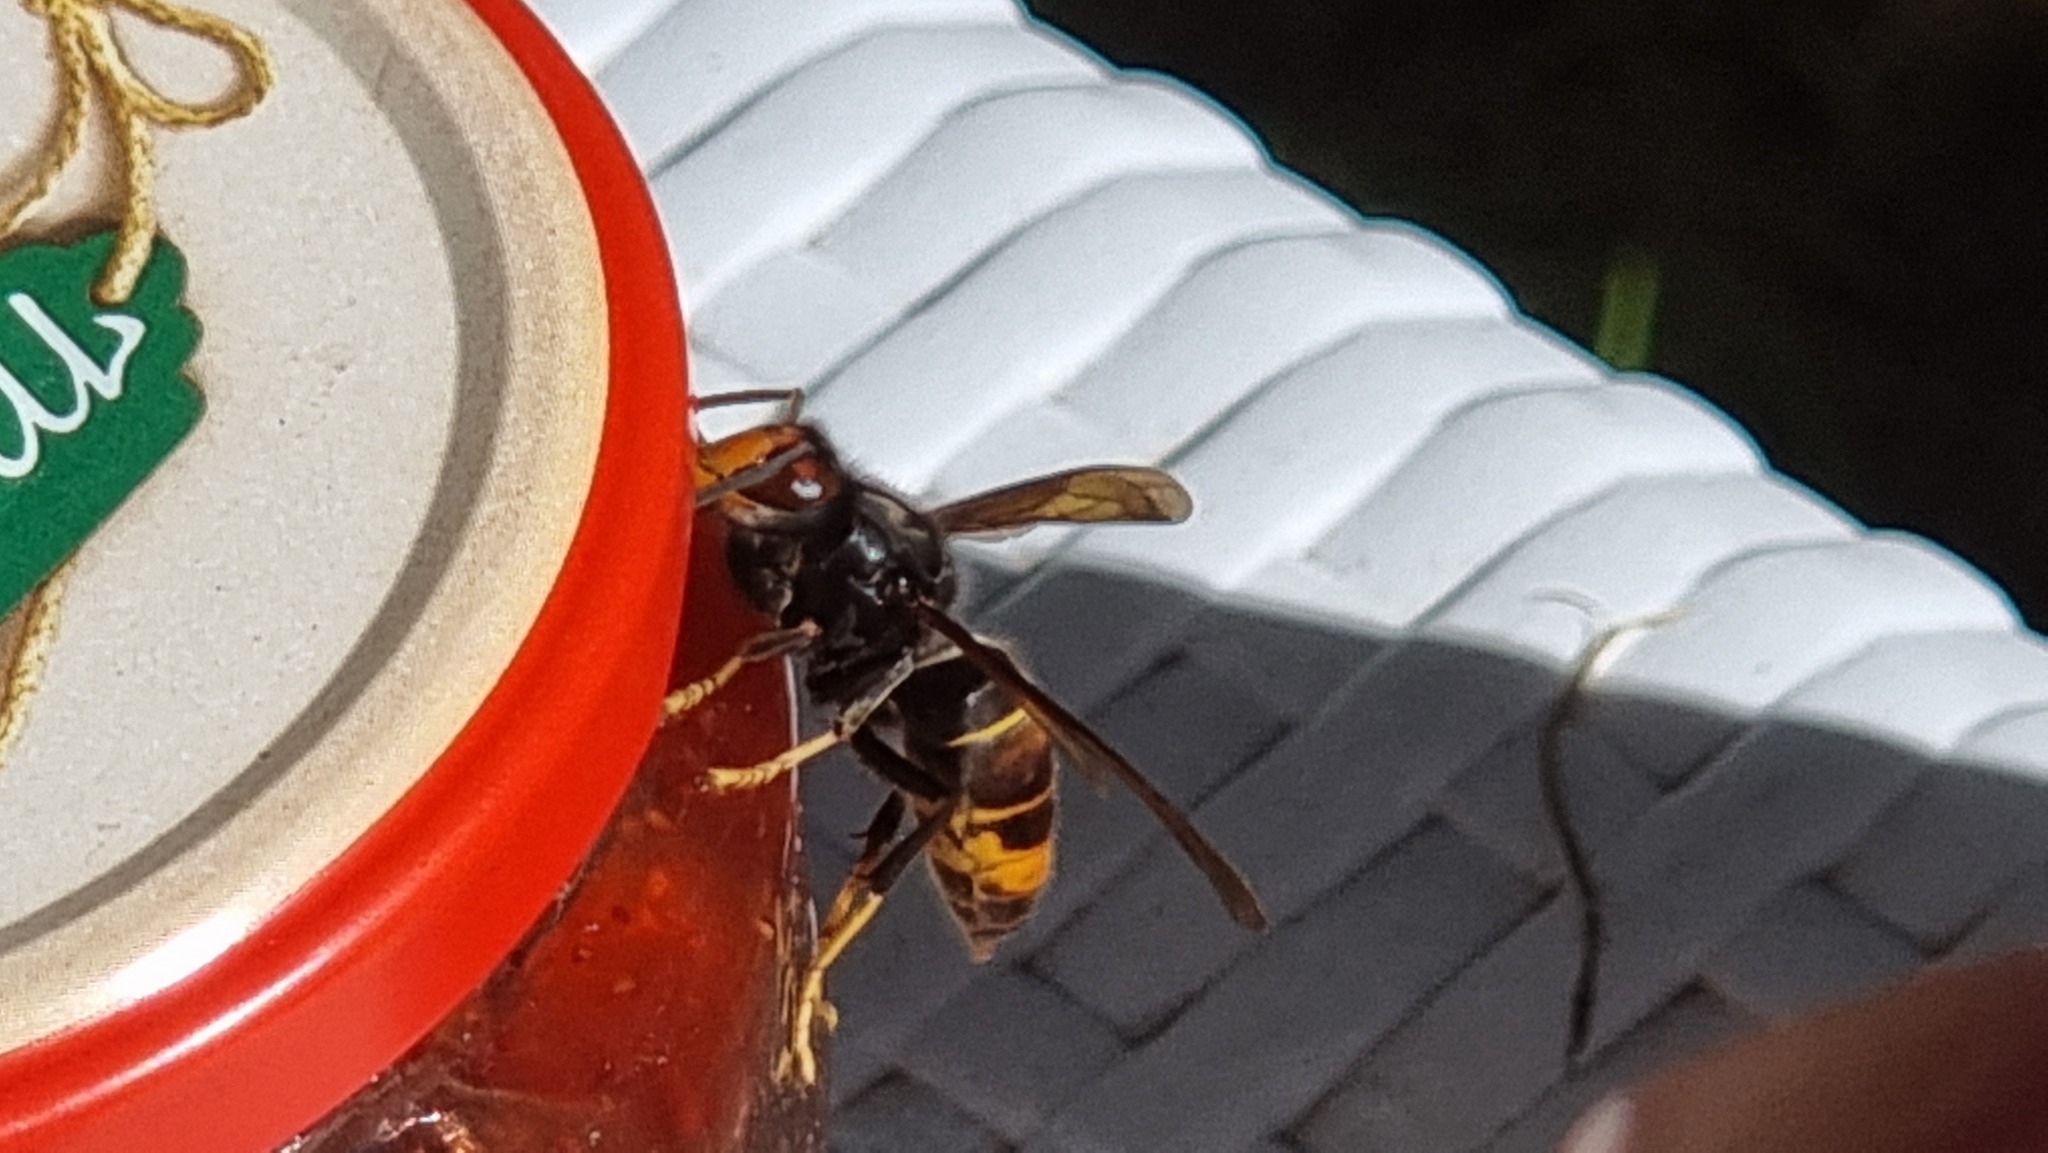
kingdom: Animalia
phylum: Arthropoda
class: Insecta
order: Hymenoptera
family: Vespidae
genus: Vespa
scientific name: Vespa velutina
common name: Asian hornet
